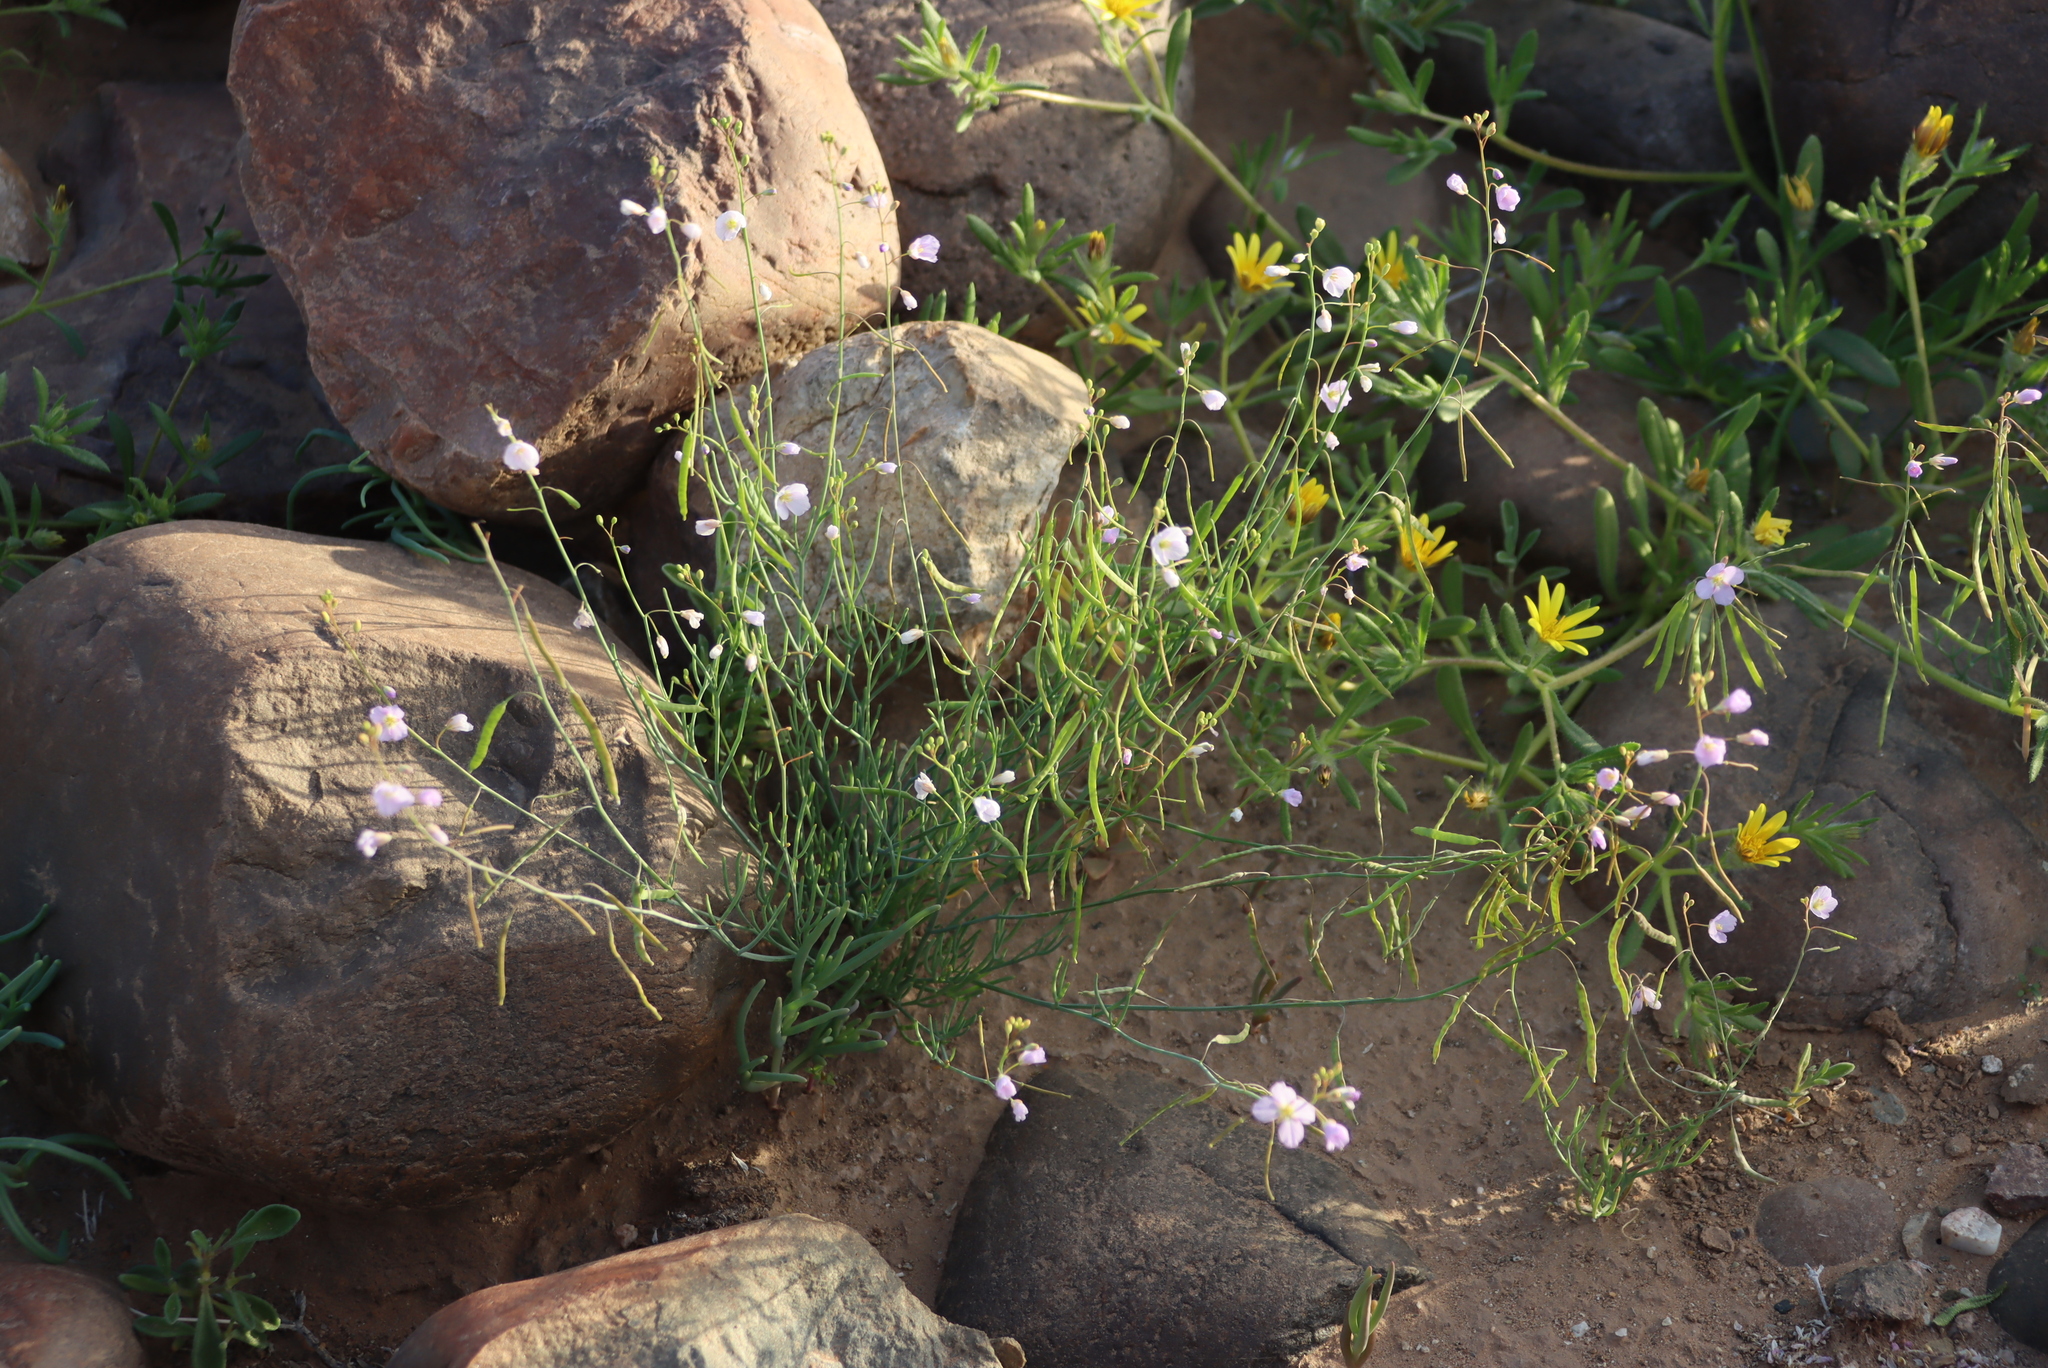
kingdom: Plantae
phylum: Tracheophyta
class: Magnoliopsida
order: Brassicales
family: Brassicaceae
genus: Heliophila
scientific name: Heliophila deserticola
